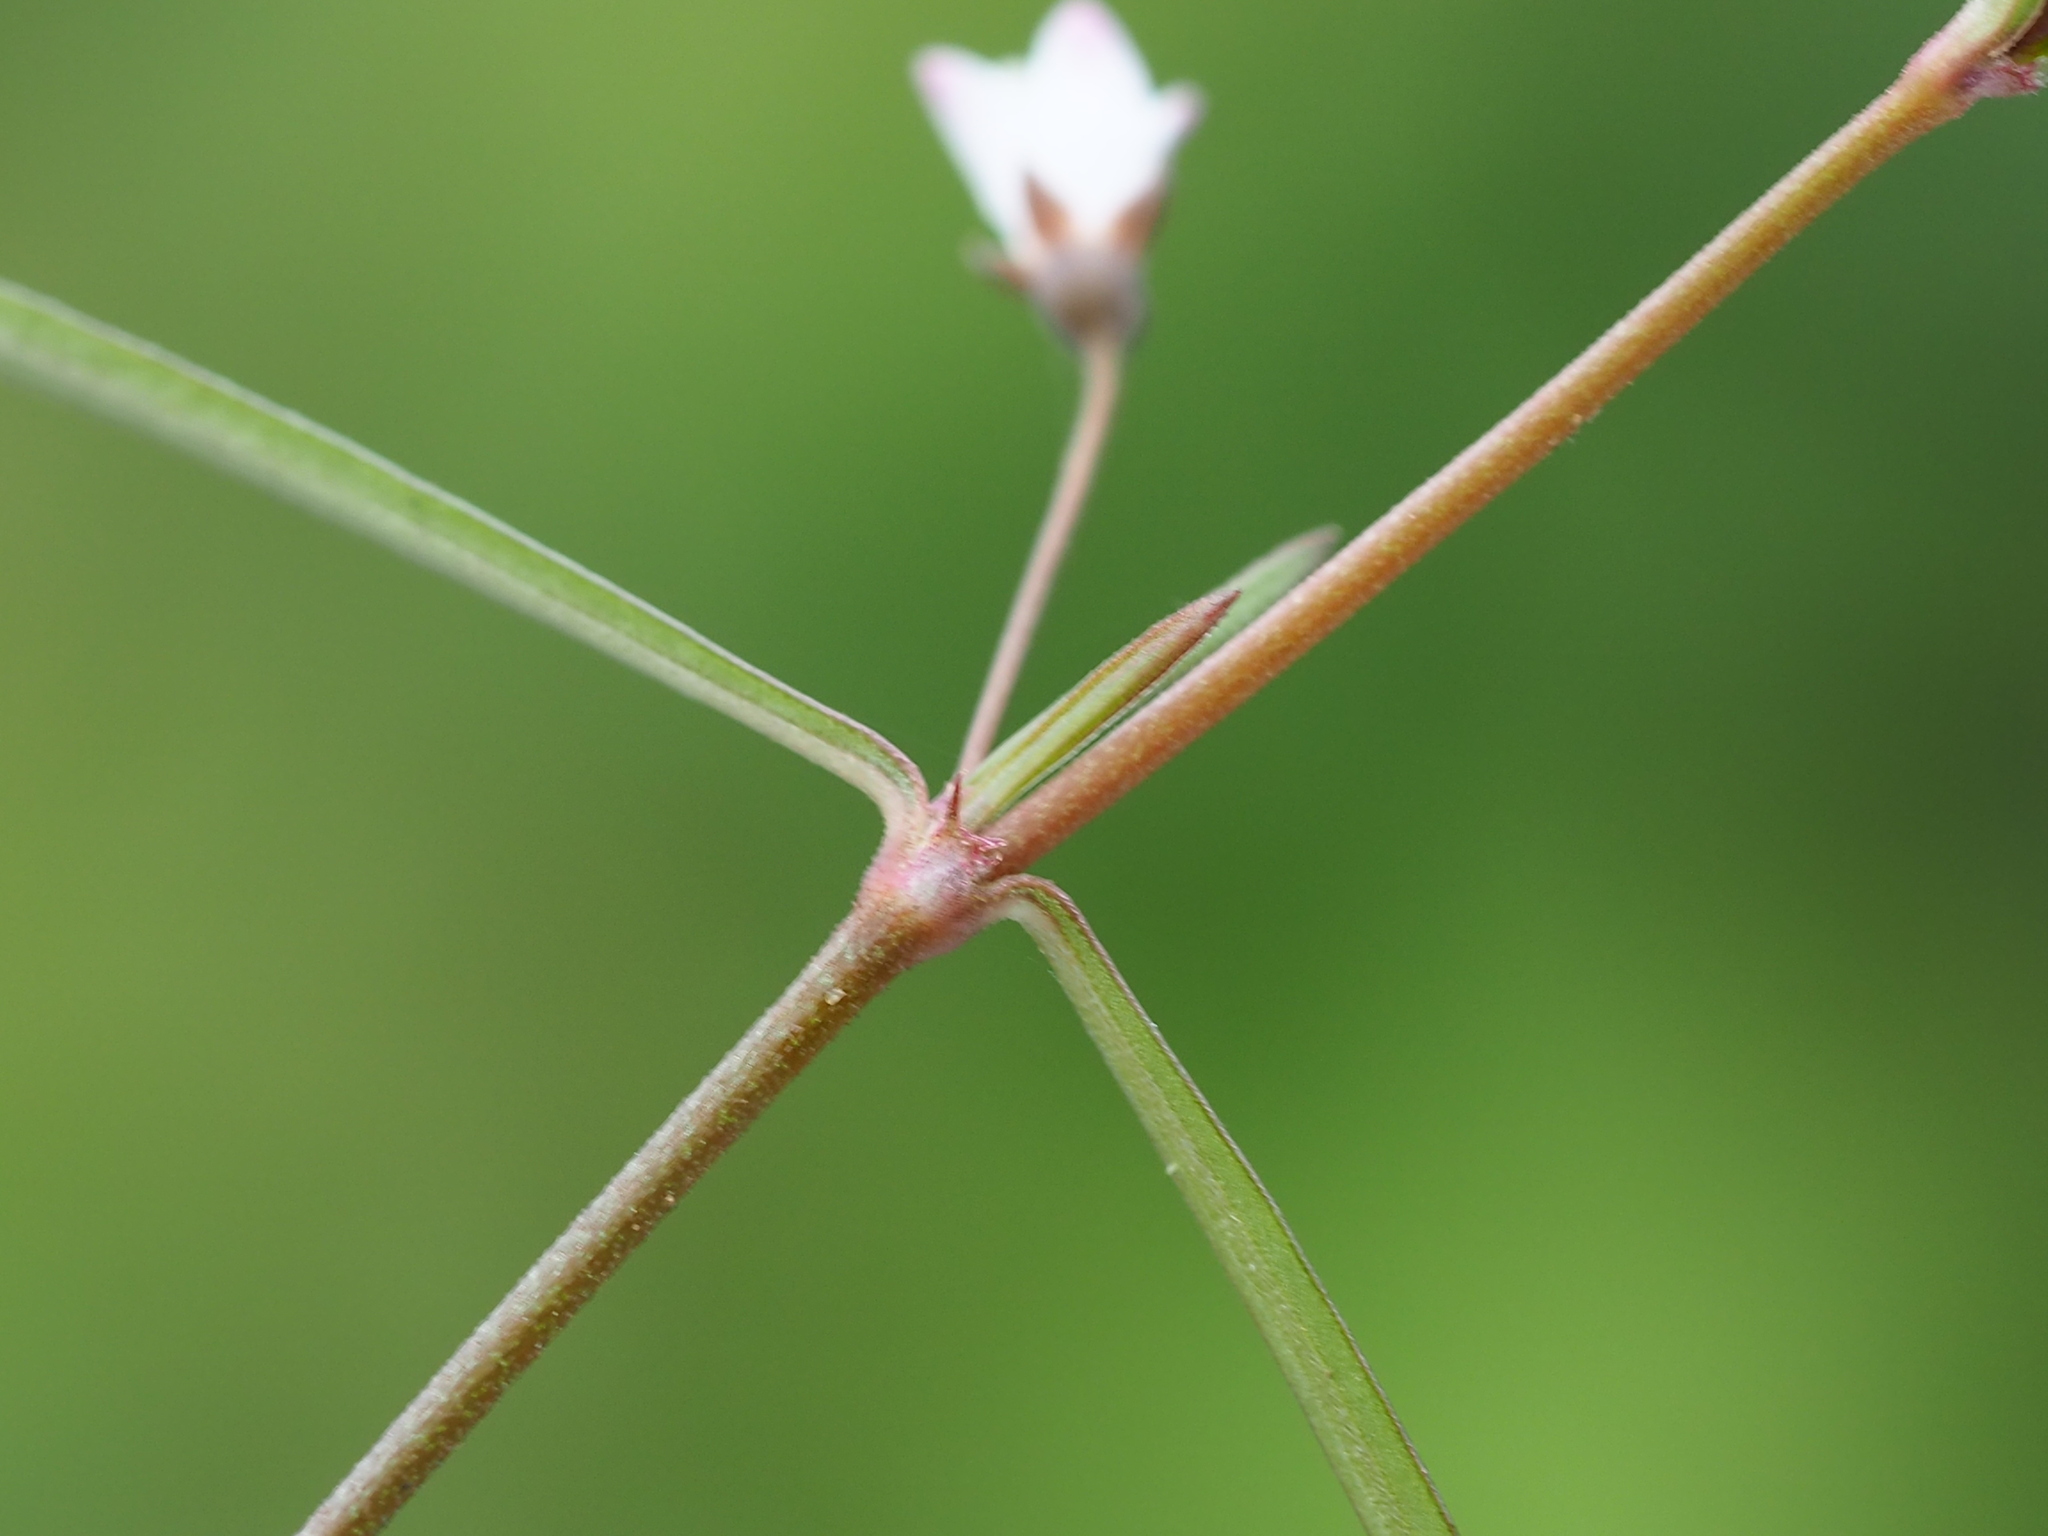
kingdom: Plantae
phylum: Tracheophyta
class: Magnoliopsida
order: Gentianales
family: Rubiaceae
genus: Scleromitrion
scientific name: Scleromitrion brachypodum
